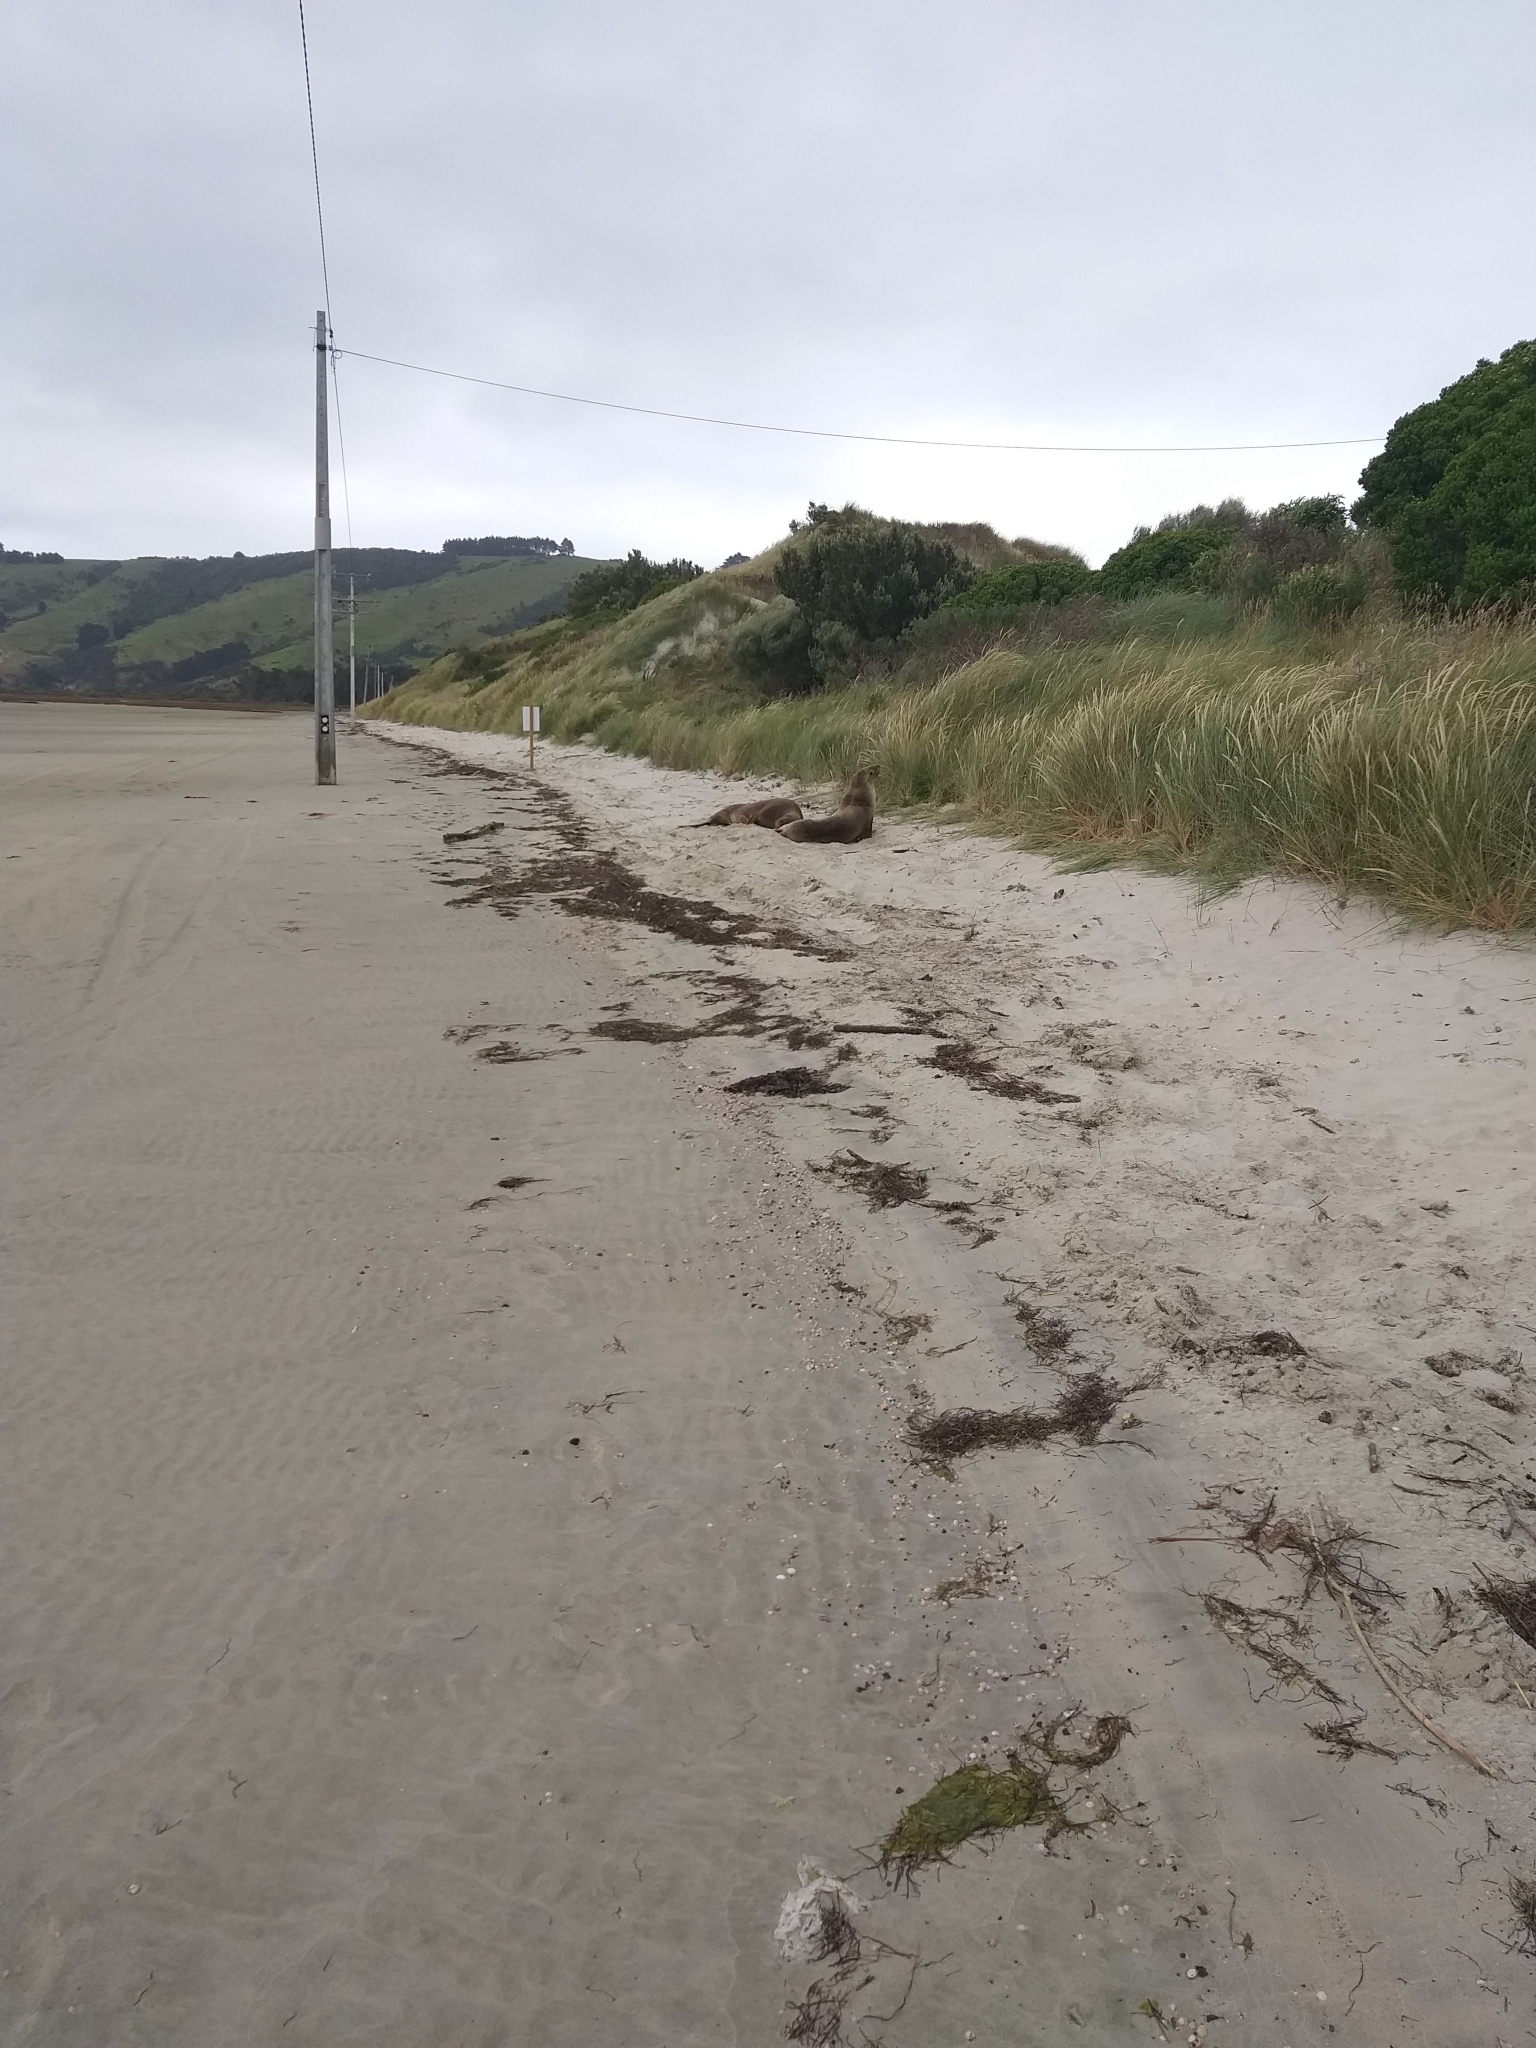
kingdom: Animalia
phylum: Chordata
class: Mammalia
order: Carnivora
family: Otariidae
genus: Phocarctos
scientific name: Phocarctos hookeri
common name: New zealand sea lion
